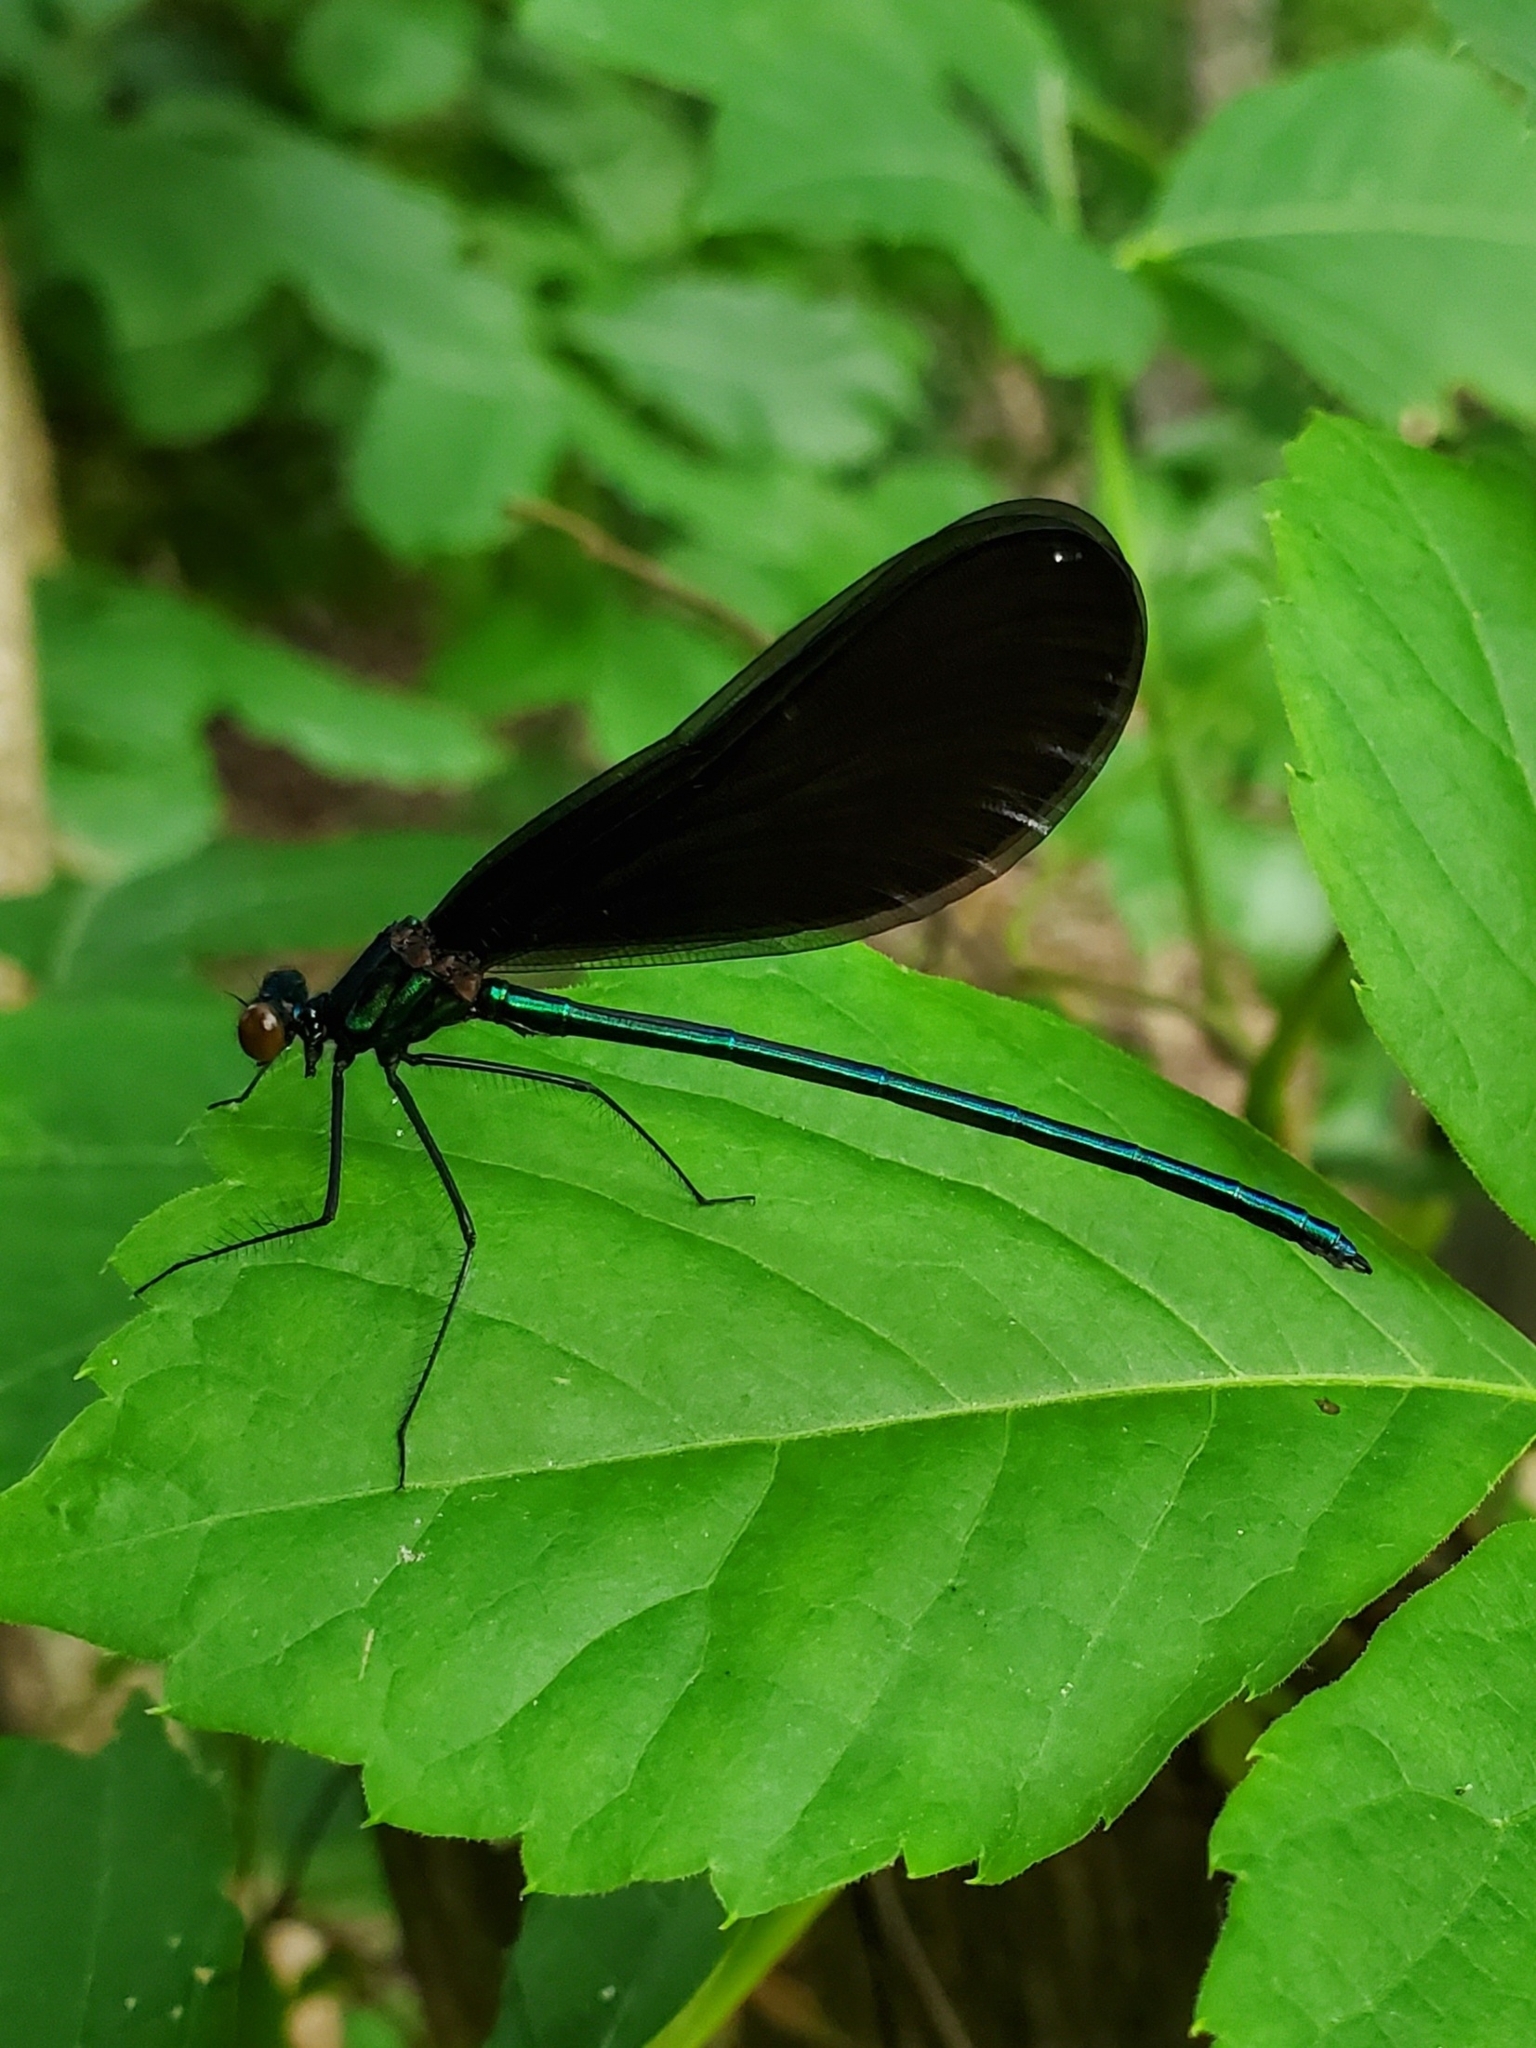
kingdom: Animalia
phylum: Arthropoda
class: Insecta
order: Odonata
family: Calopterygidae
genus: Calopteryx
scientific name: Calopteryx maculata
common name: Ebony jewelwing
